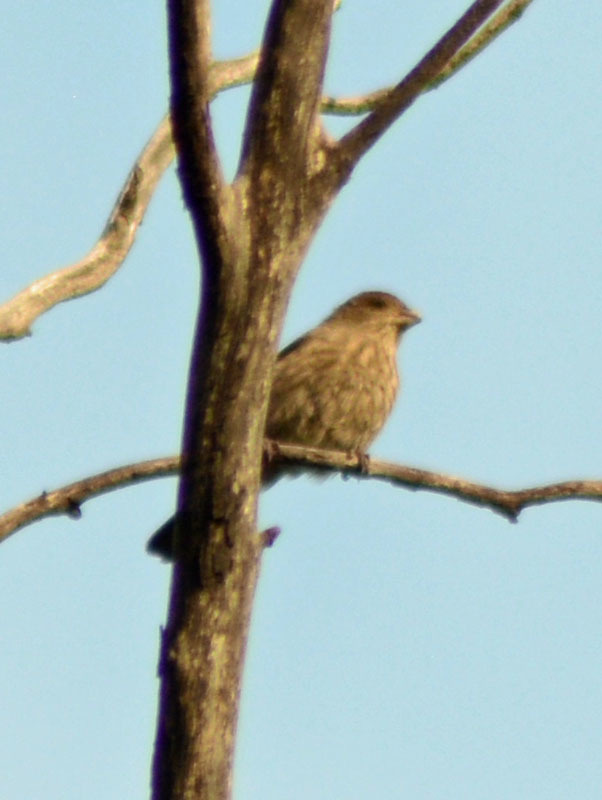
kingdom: Animalia
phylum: Chordata
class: Aves
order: Passeriformes
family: Fringillidae
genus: Haemorhous
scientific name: Haemorhous mexicanus
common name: House finch
